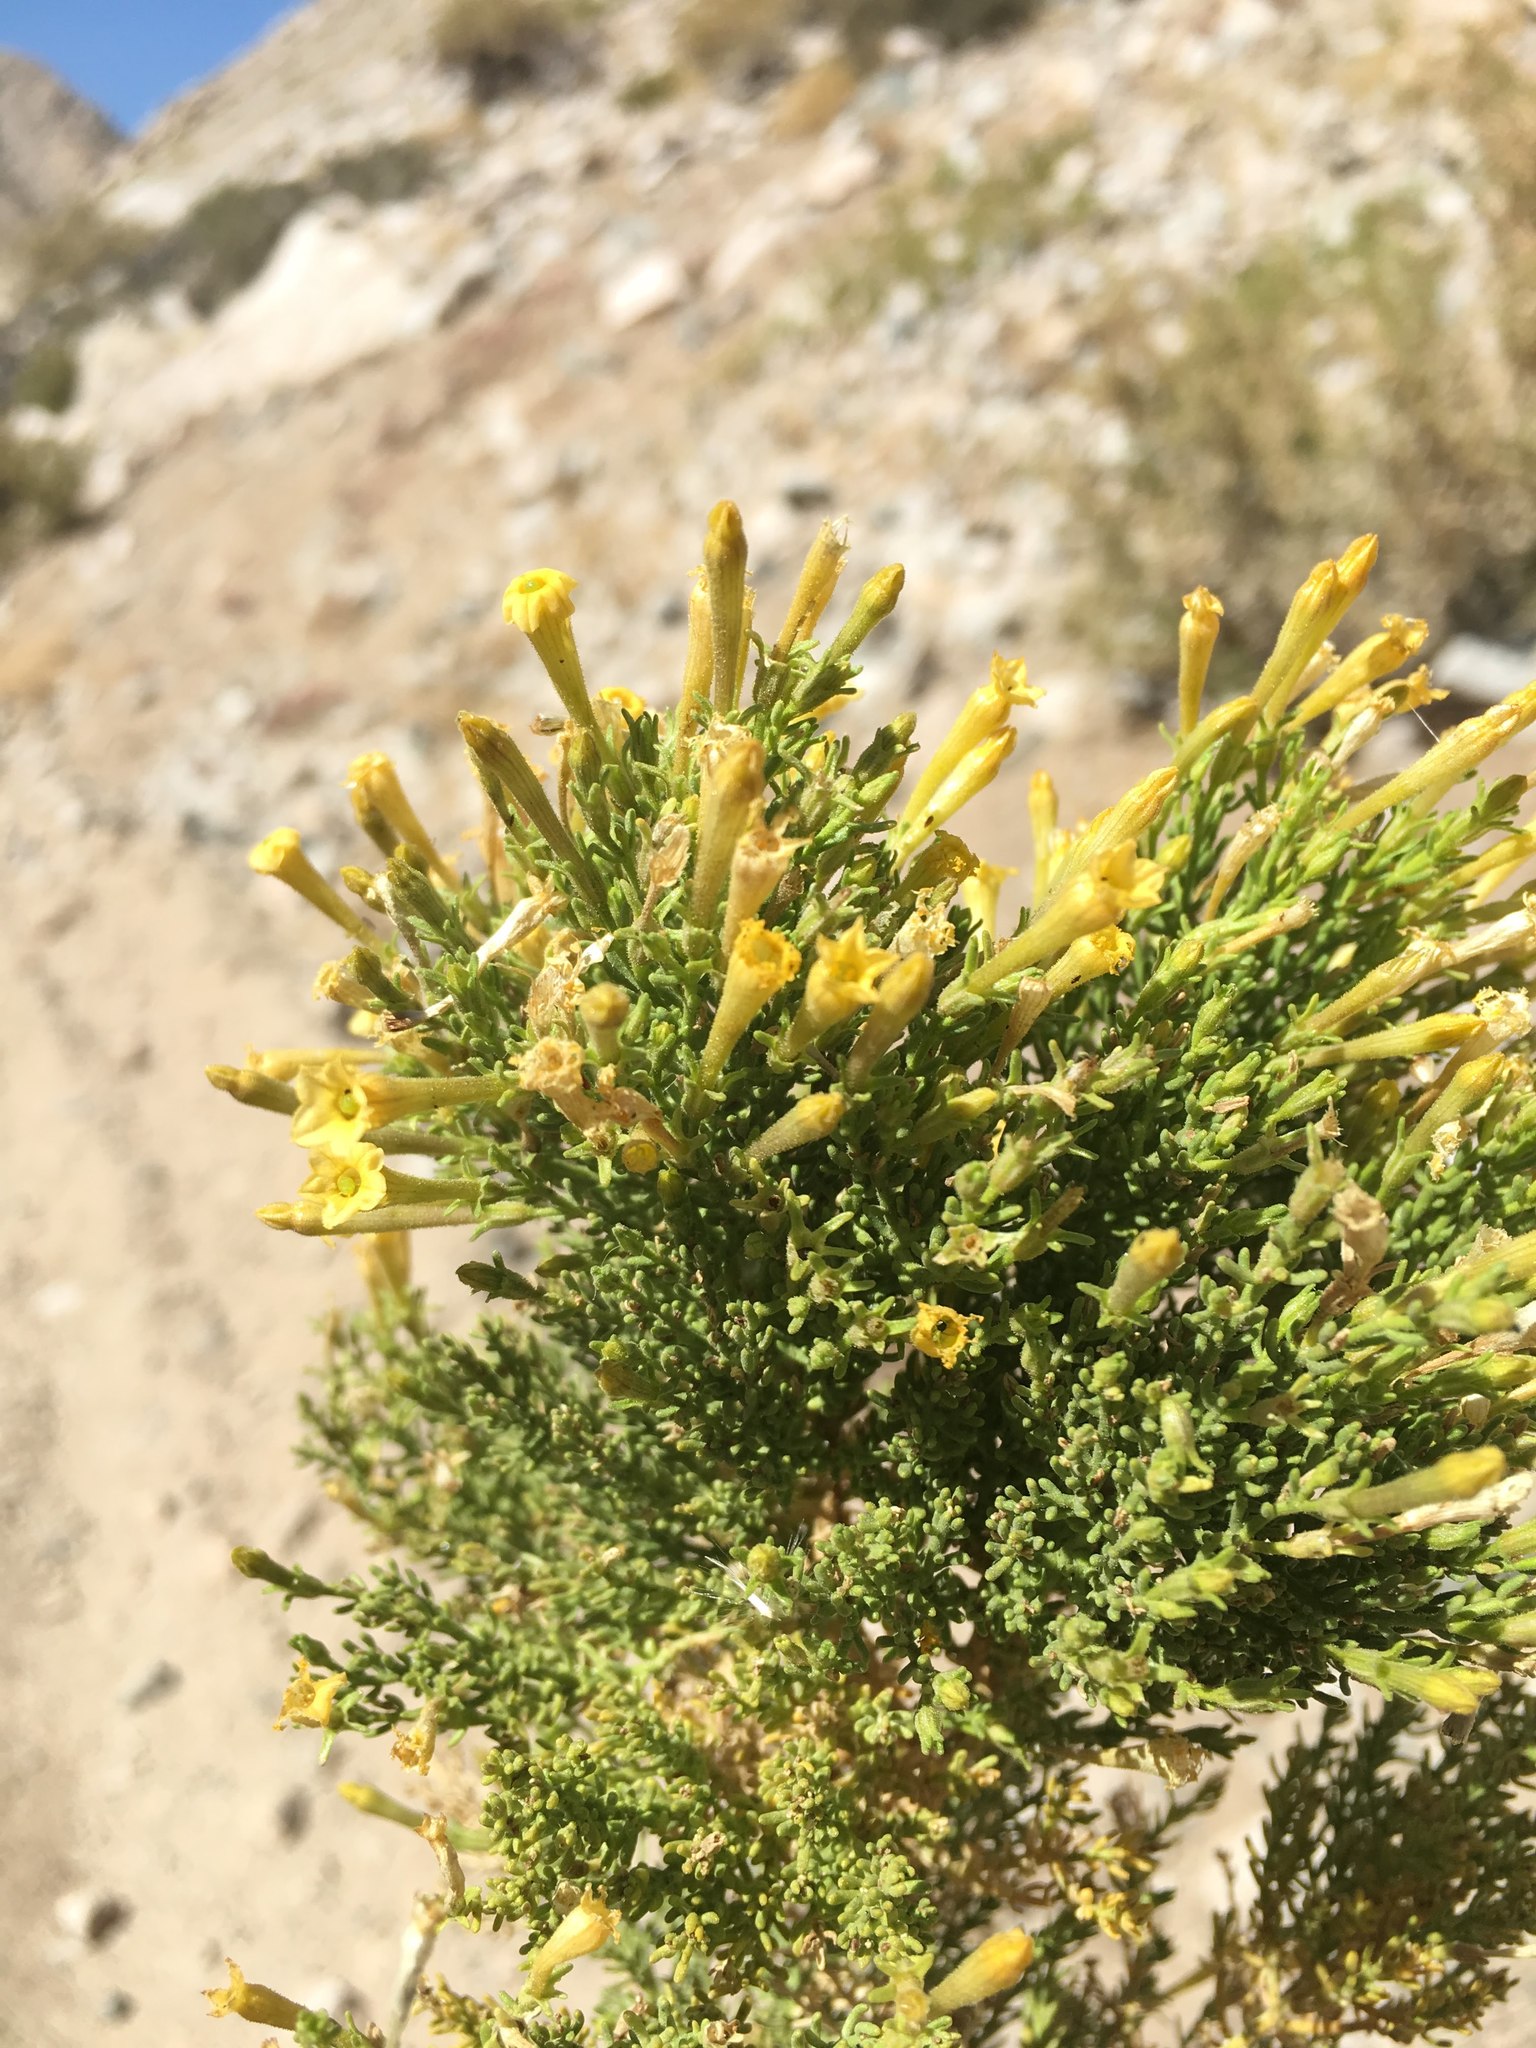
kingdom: Plantae
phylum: Tracheophyta
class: Magnoliopsida
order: Solanales
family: Solanaceae
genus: Fabiana
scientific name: Fabiana viscosa
